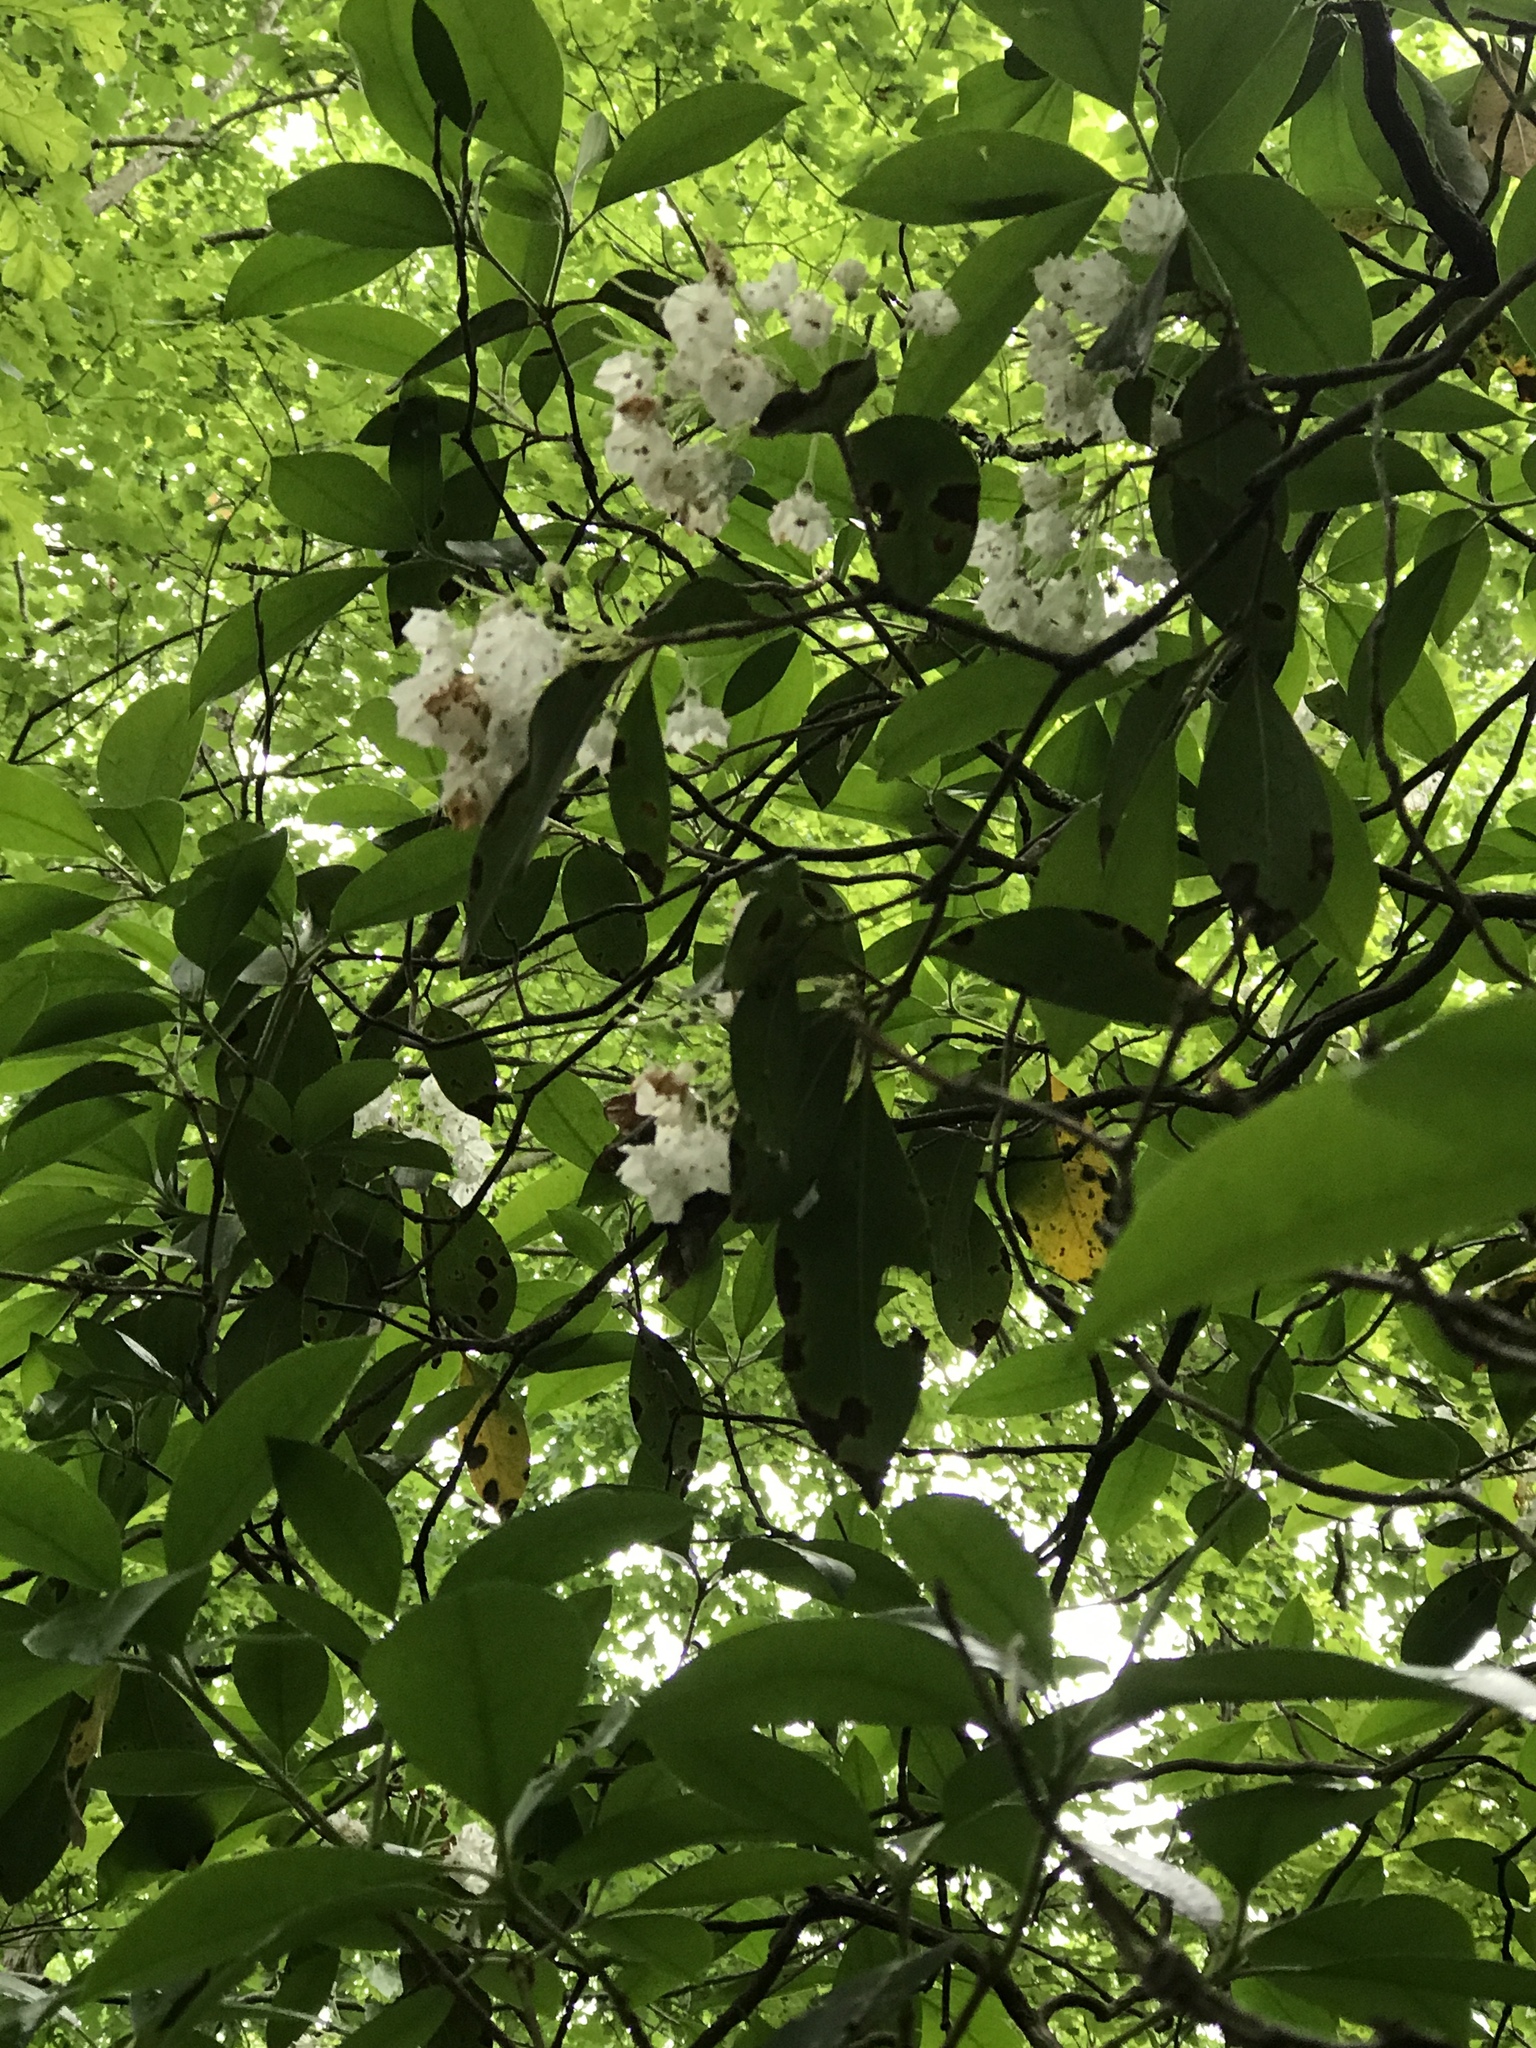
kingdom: Plantae
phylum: Tracheophyta
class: Magnoliopsida
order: Ericales
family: Ericaceae
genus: Kalmia
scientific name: Kalmia latifolia
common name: Mountain-laurel
